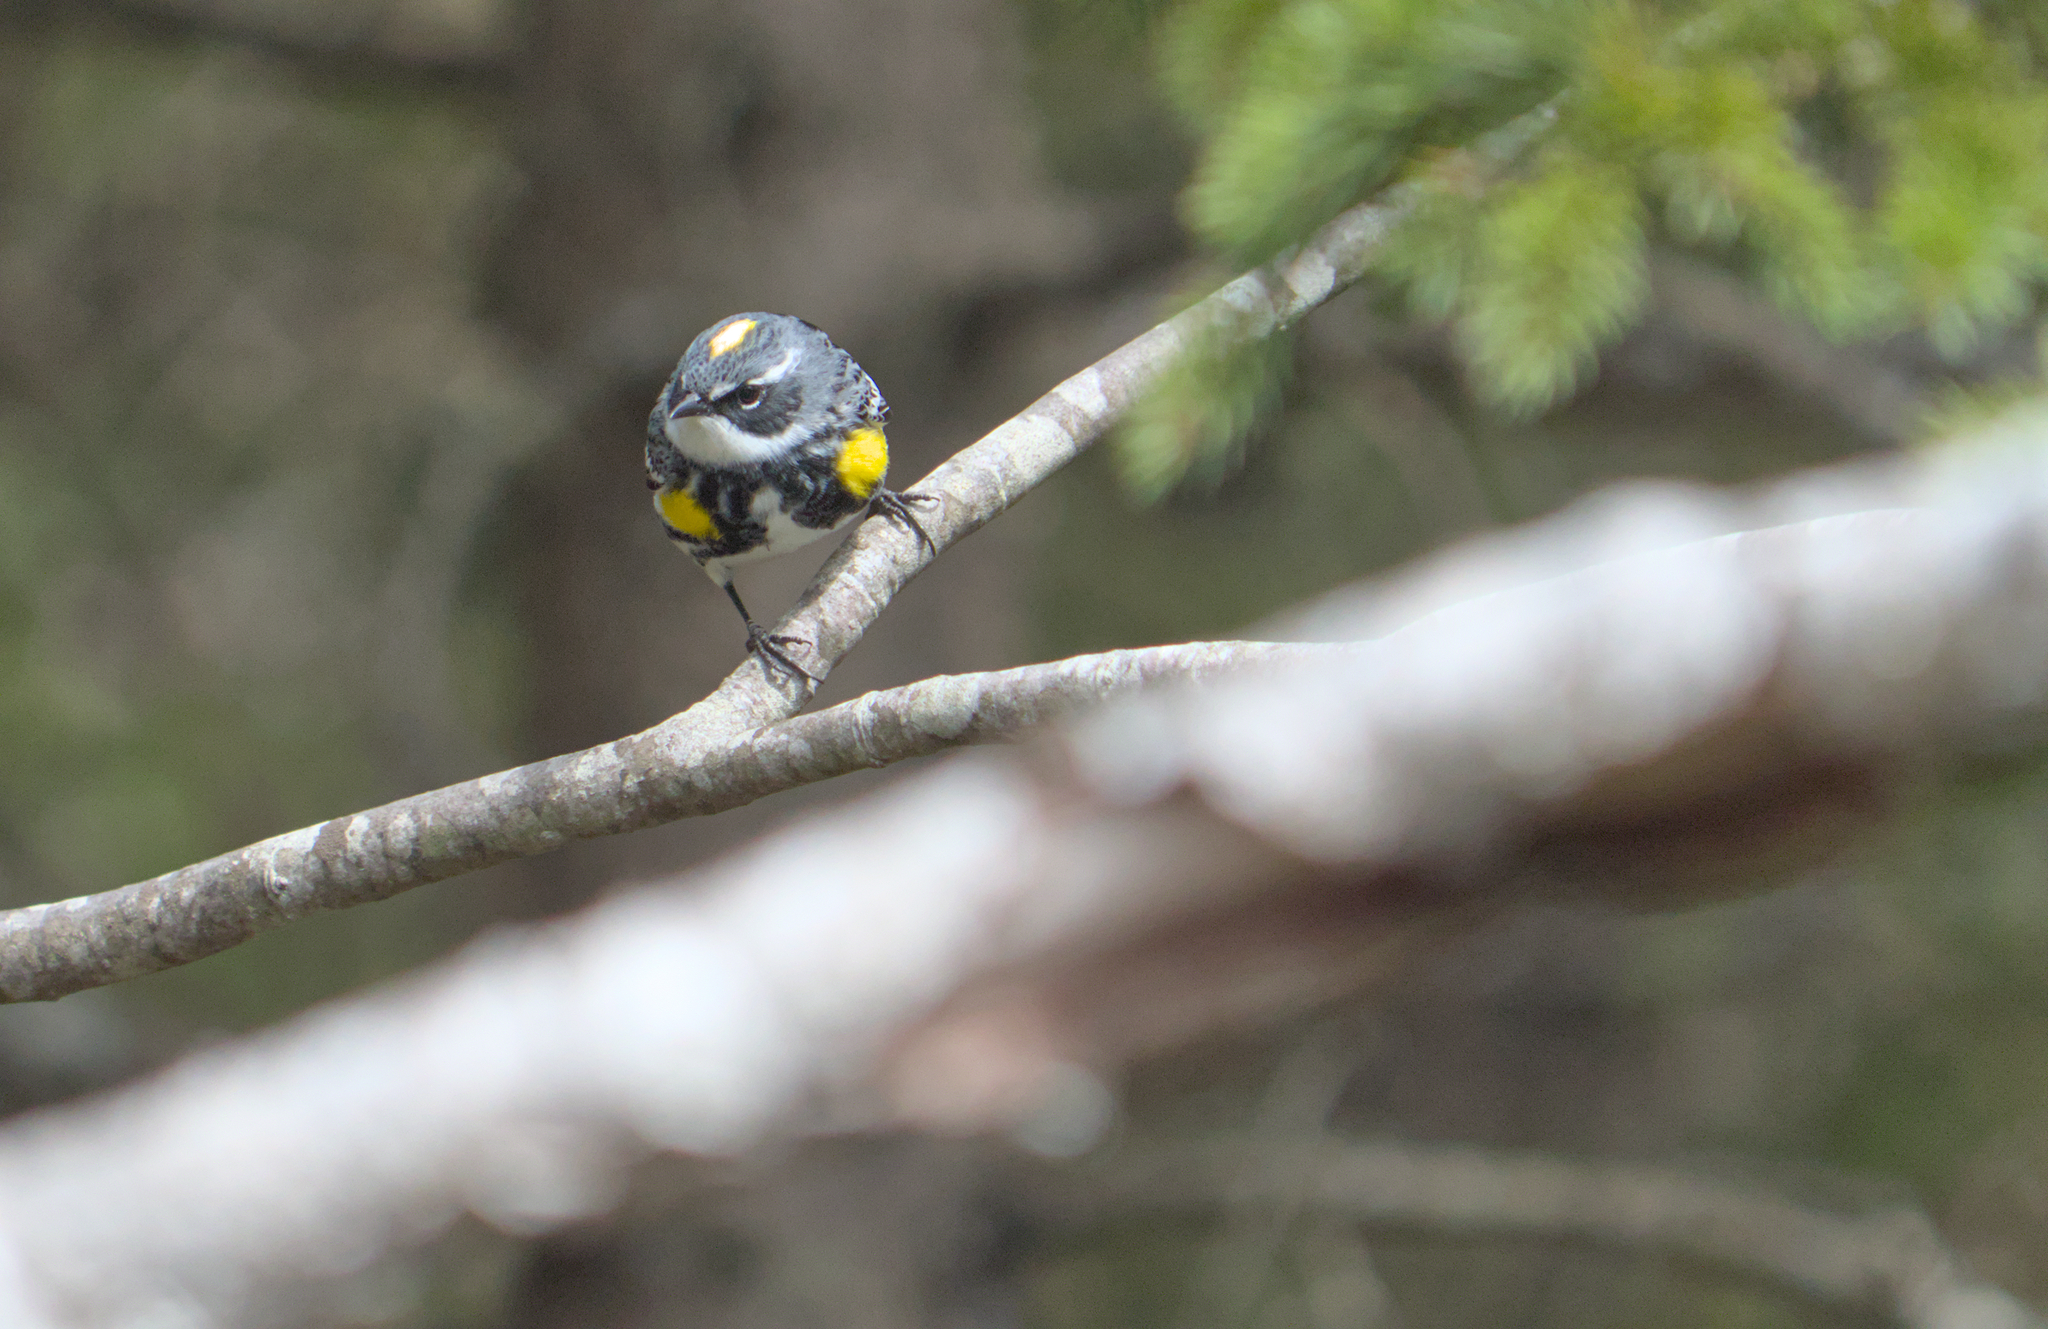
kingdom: Animalia
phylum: Chordata
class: Aves
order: Passeriformes
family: Parulidae
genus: Setophaga
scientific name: Setophaga coronata
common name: Myrtle warbler
